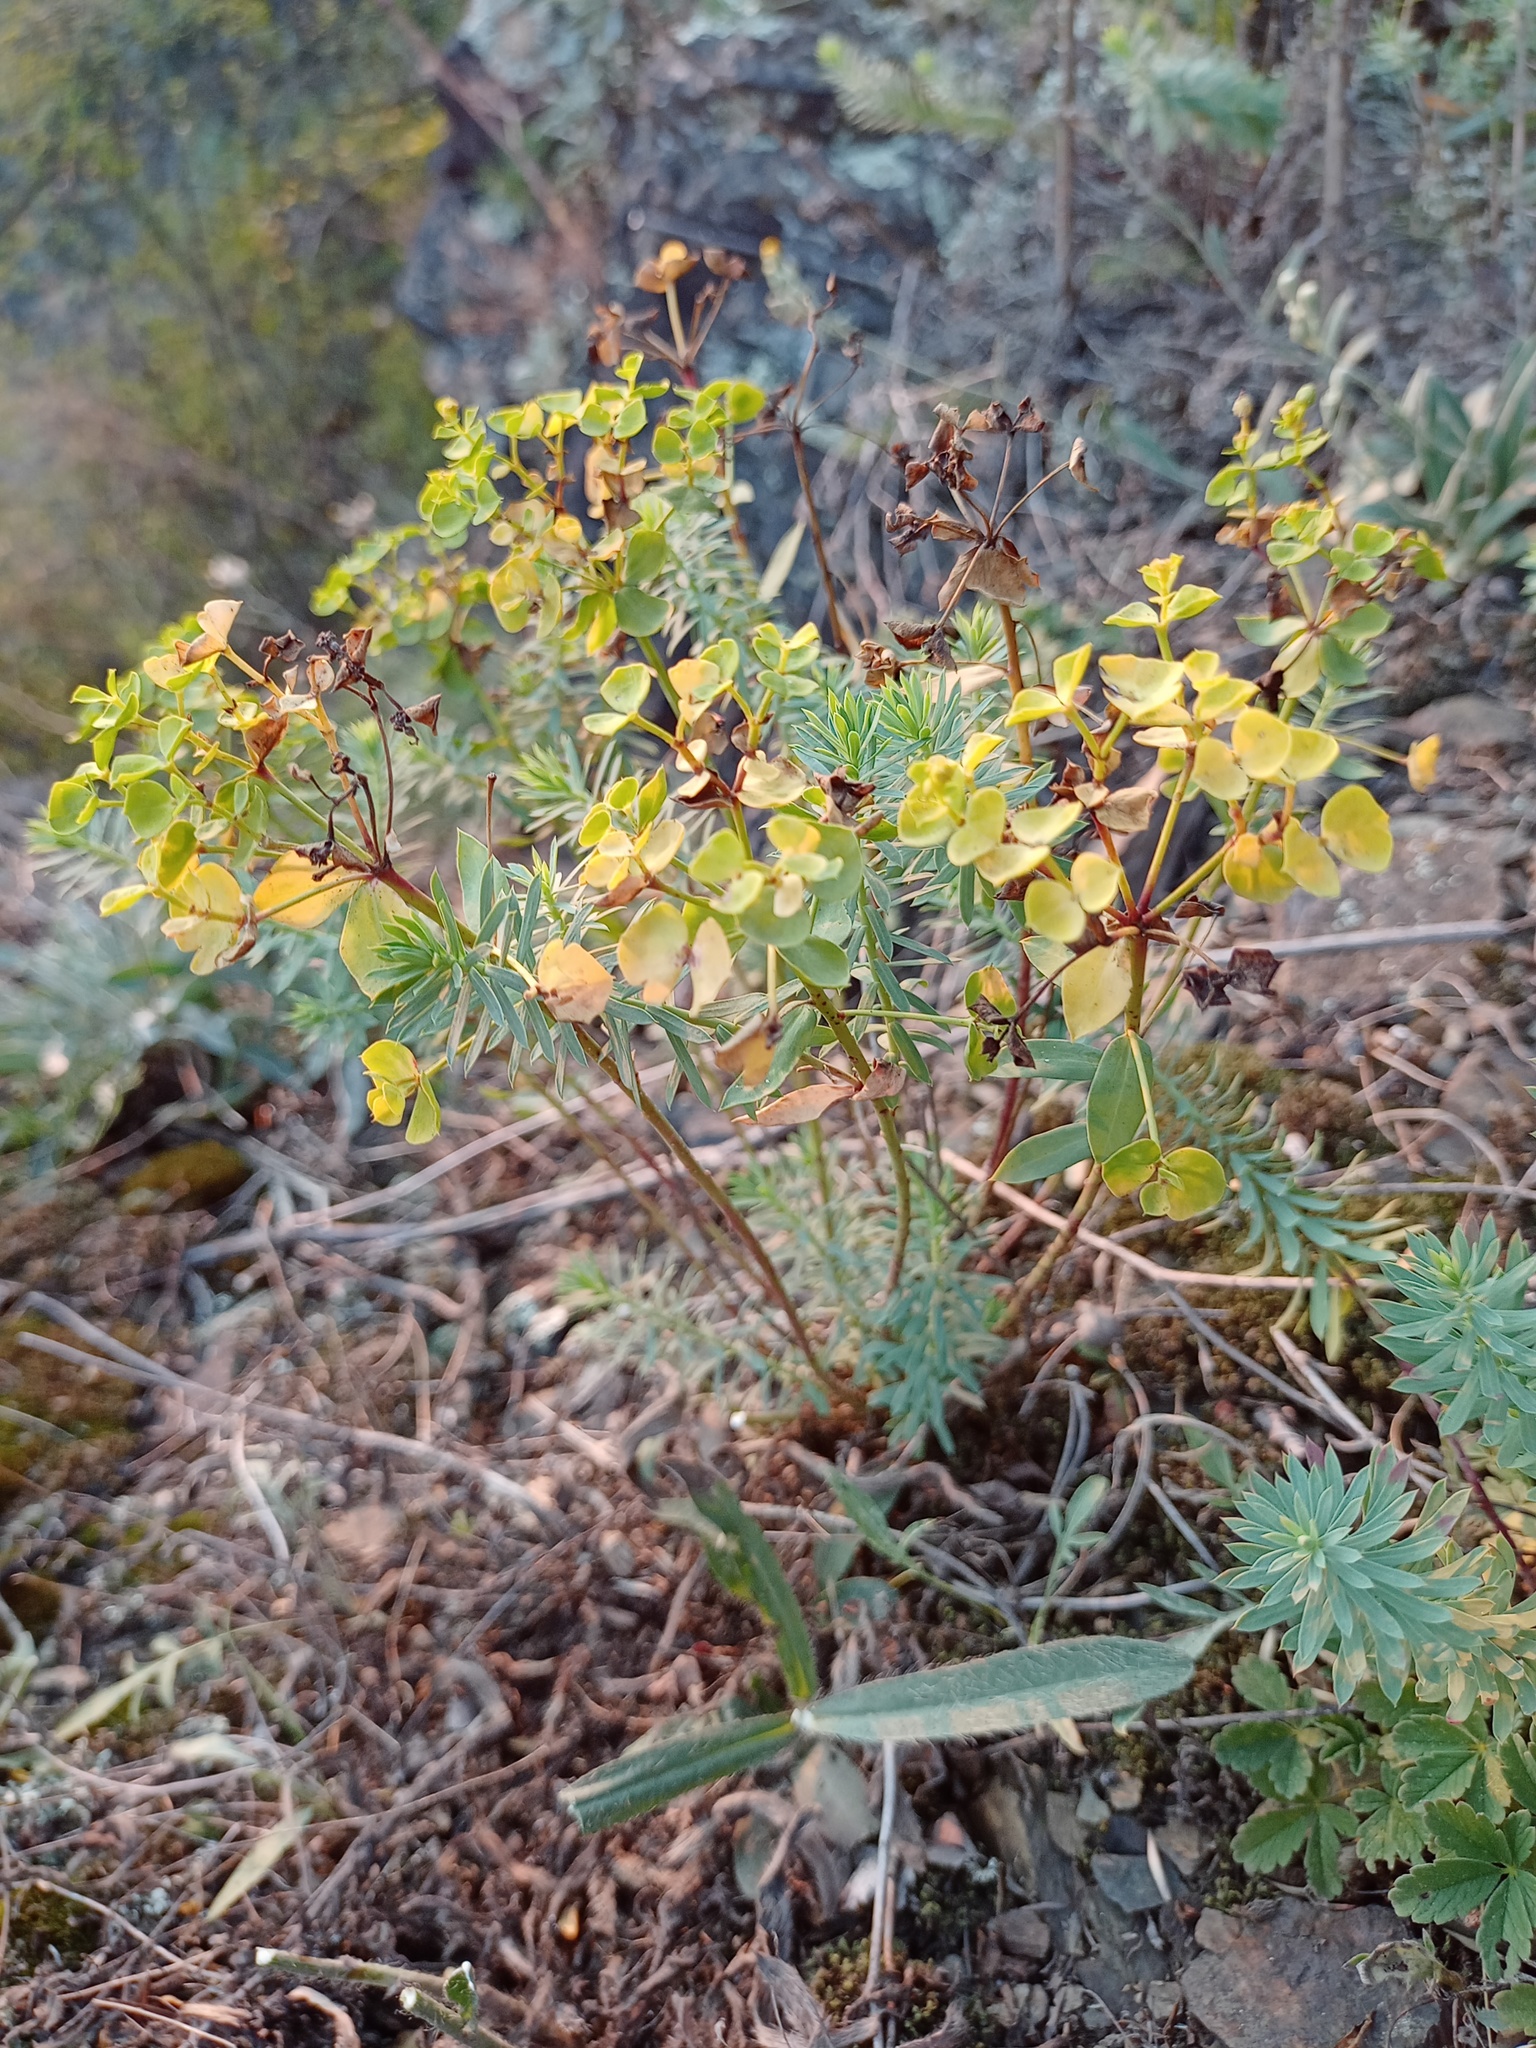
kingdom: Plantae
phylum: Tracheophyta
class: Magnoliopsida
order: Malpighiales
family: Euphorbiaceae
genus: Euphorbia
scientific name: Euphorbia seguieriana
